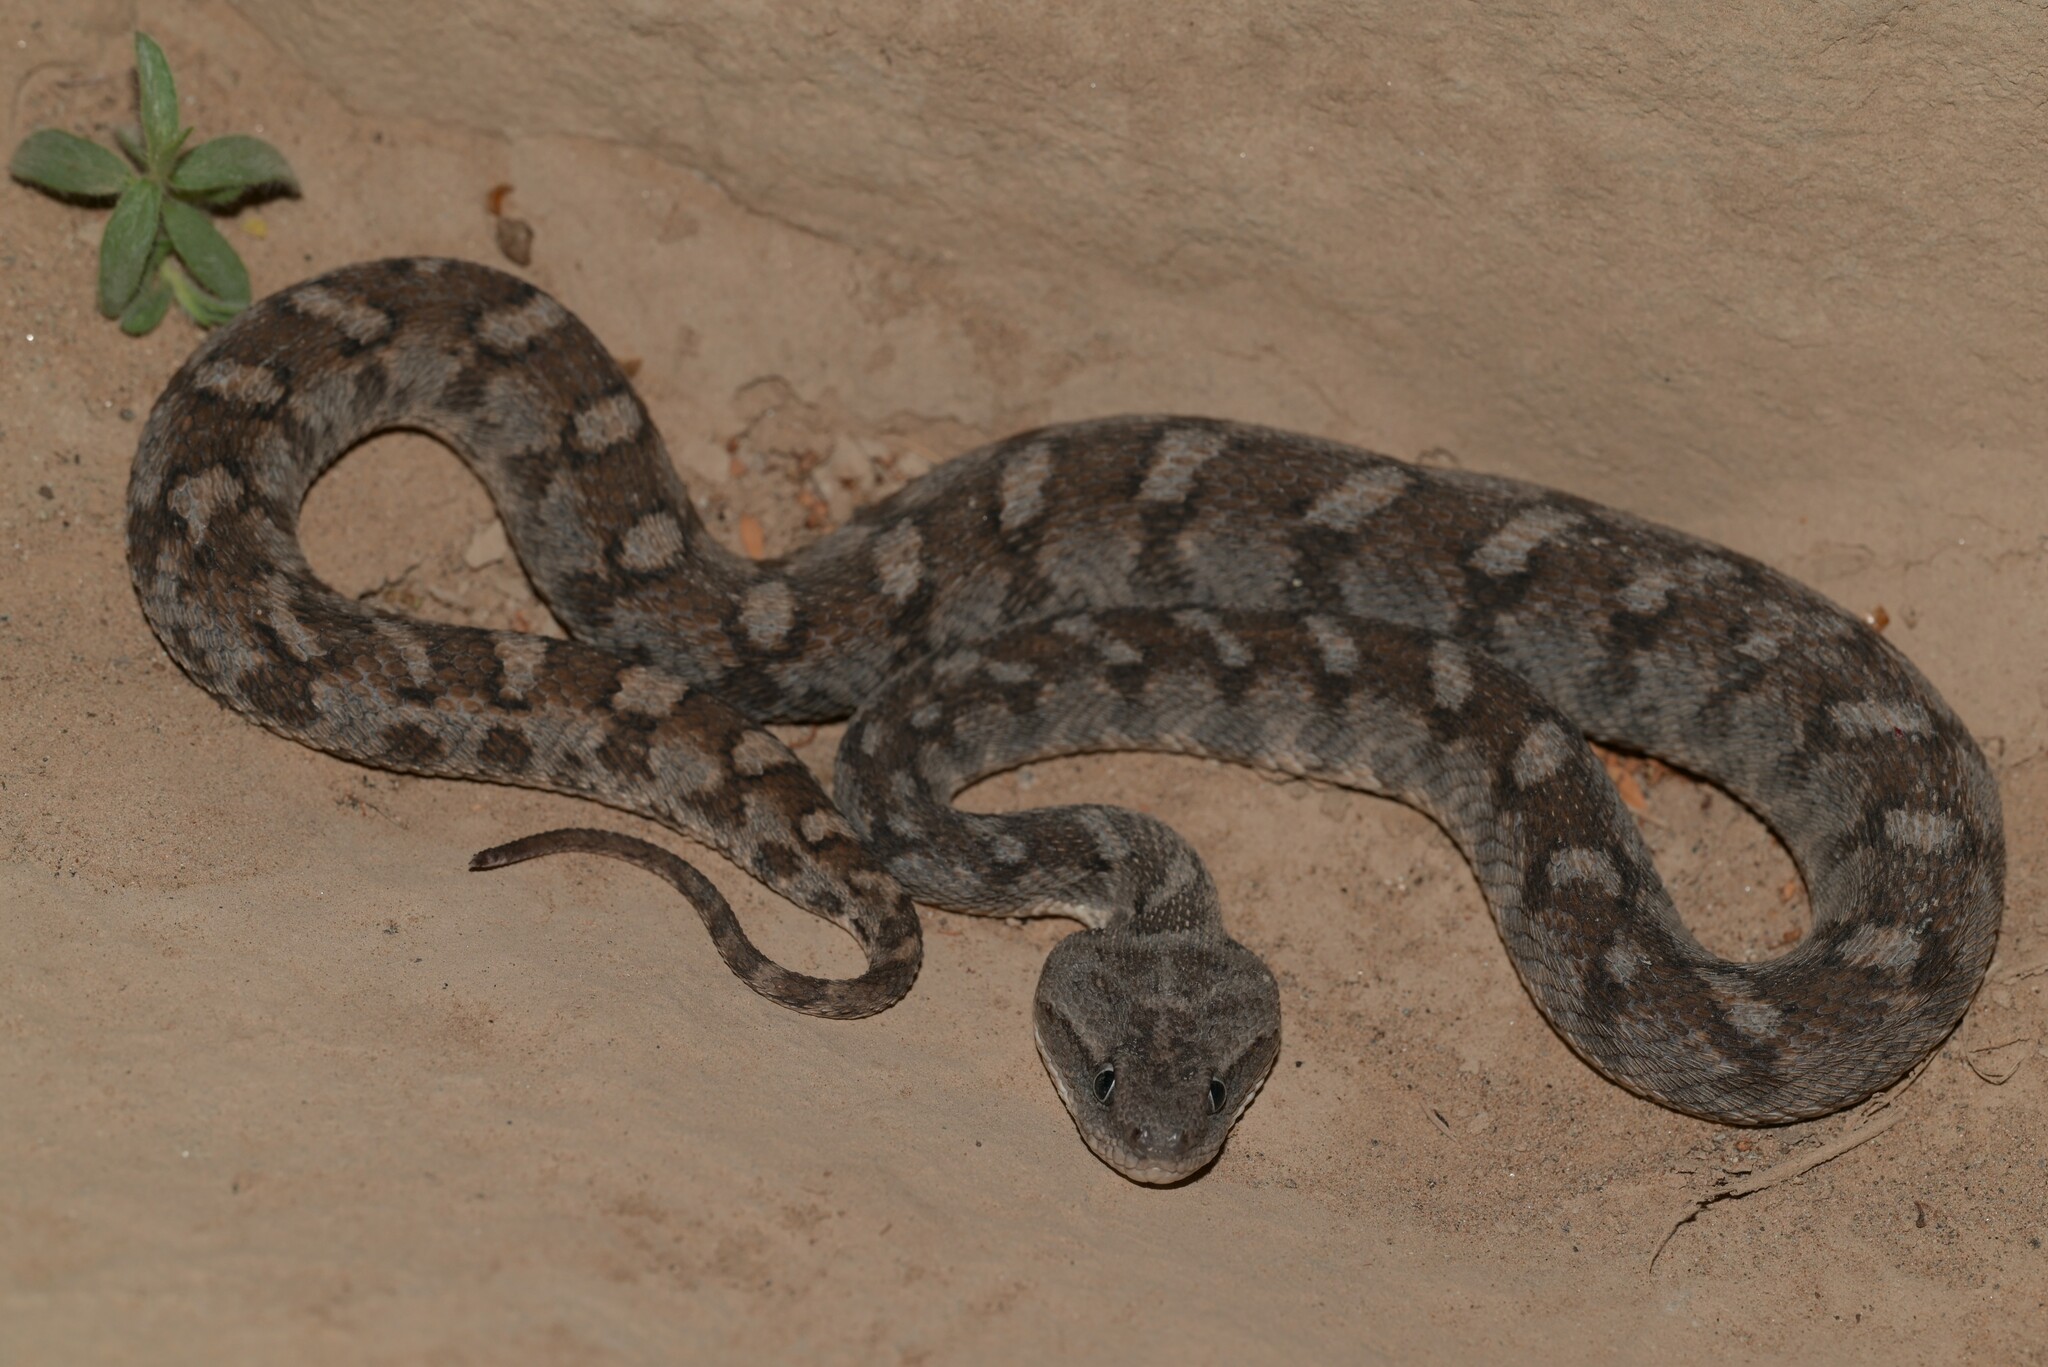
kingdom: Animalia
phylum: Chordata
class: Squamata
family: Viperidae
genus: Echis
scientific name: Echis omanensis
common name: Oman saw-scaled viper
